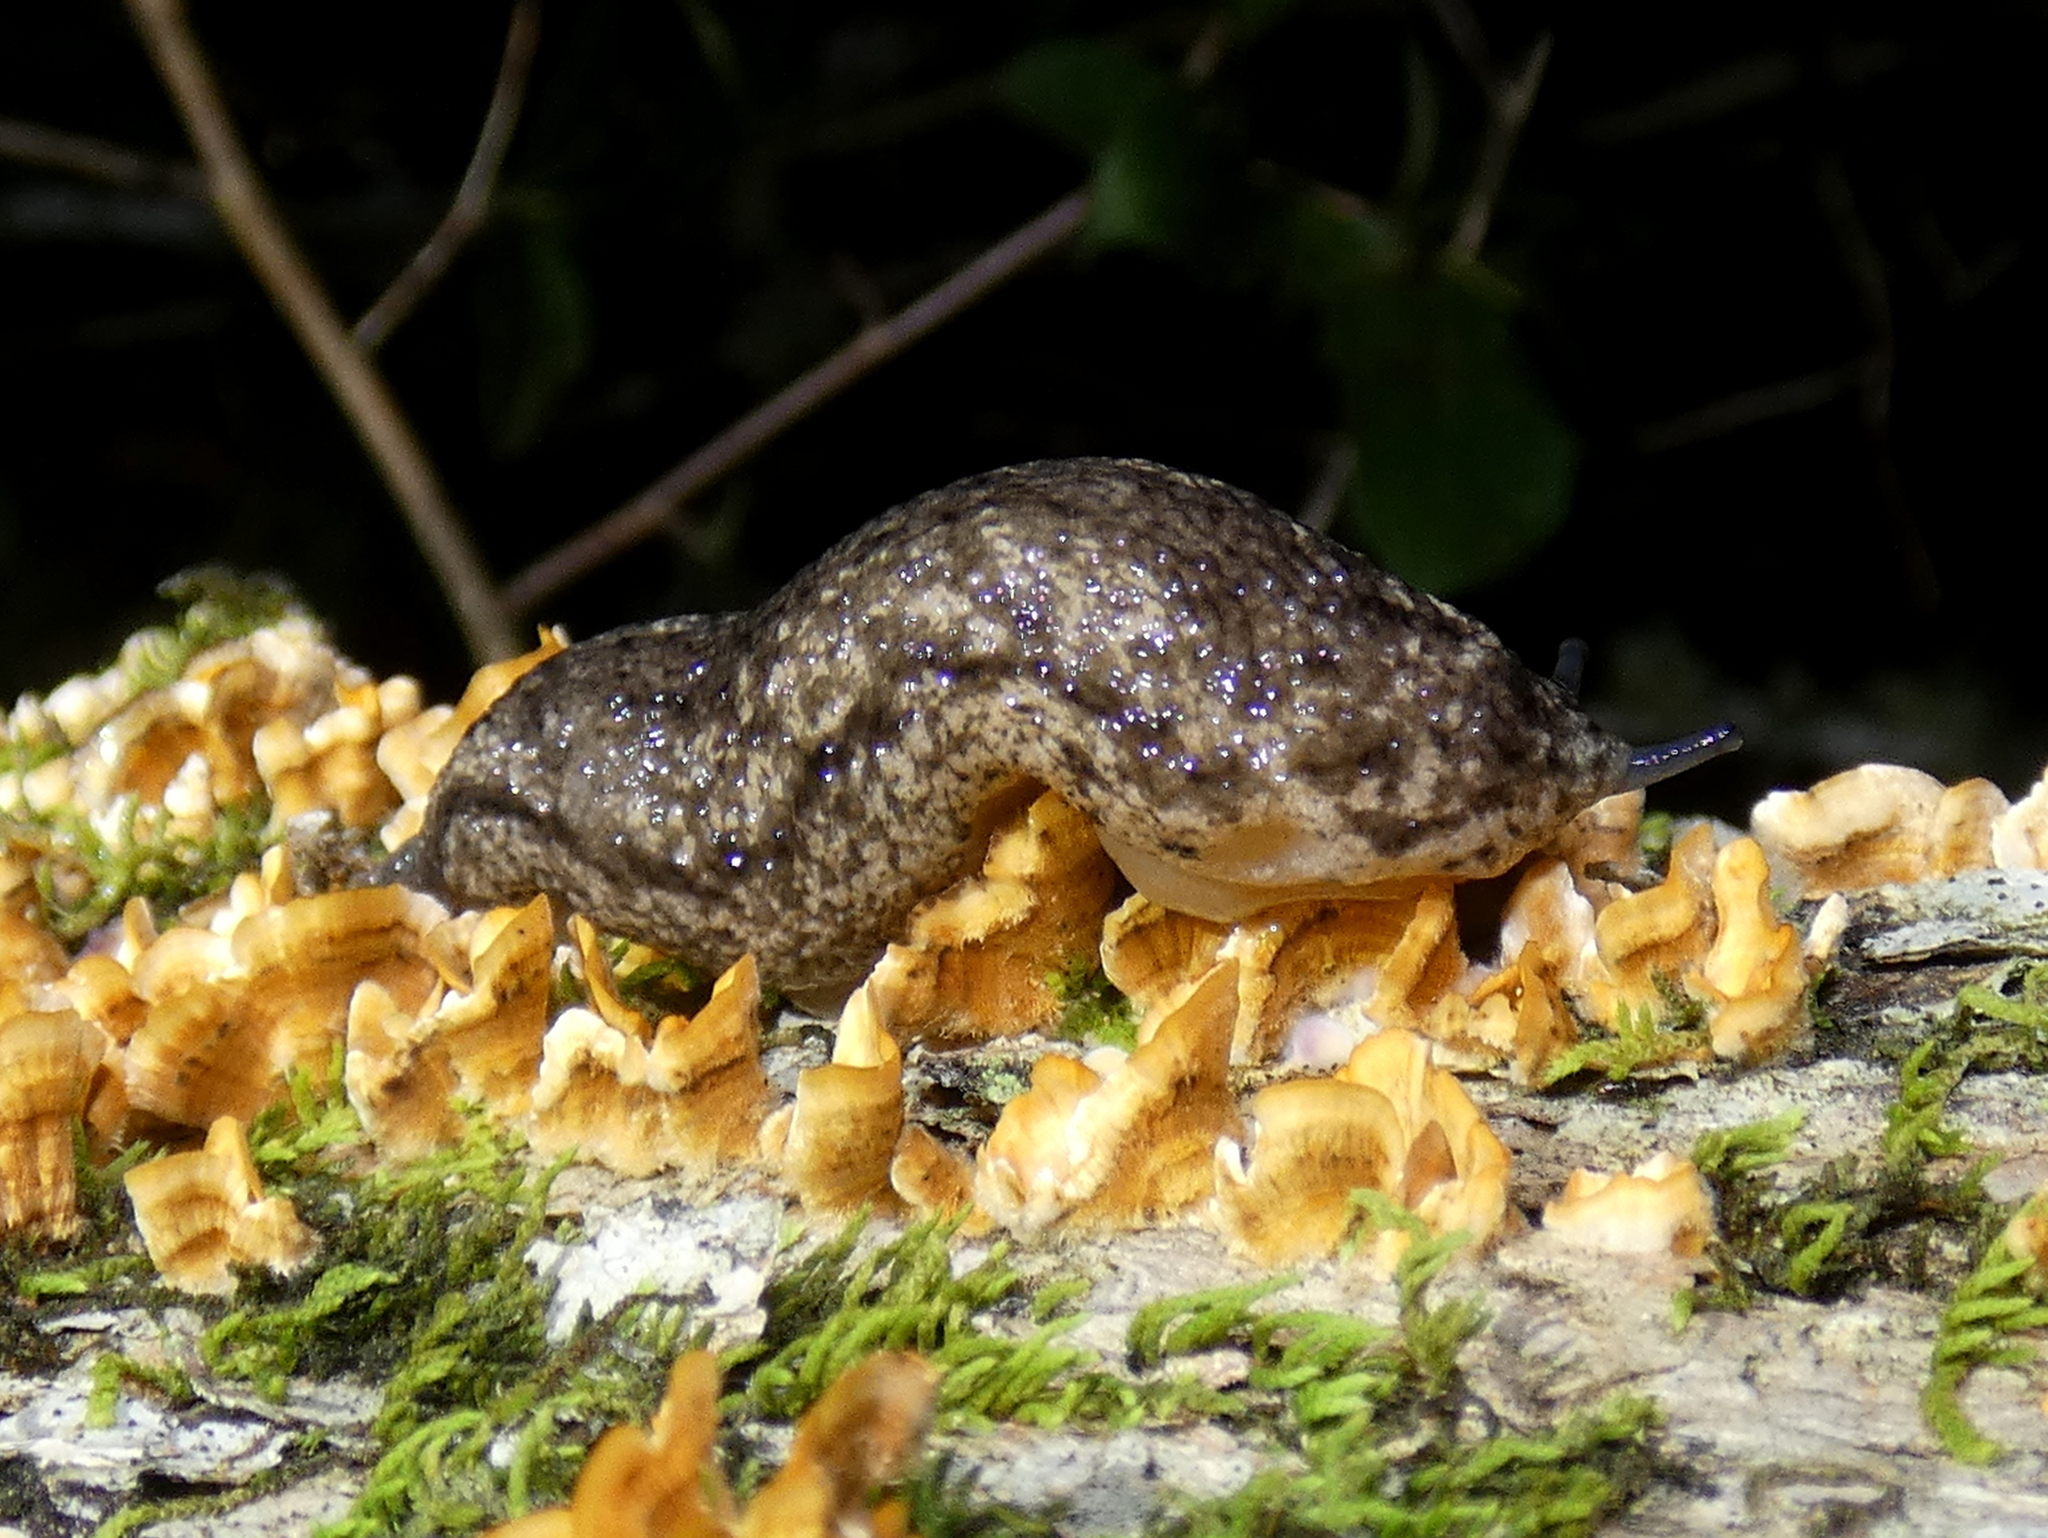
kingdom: Animalia
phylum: Mollusca
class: Gastropoda
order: Stylommatophora
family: Philomycidae
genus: Philomycus
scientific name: Philomycus togatus
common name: Toga mantleslug
